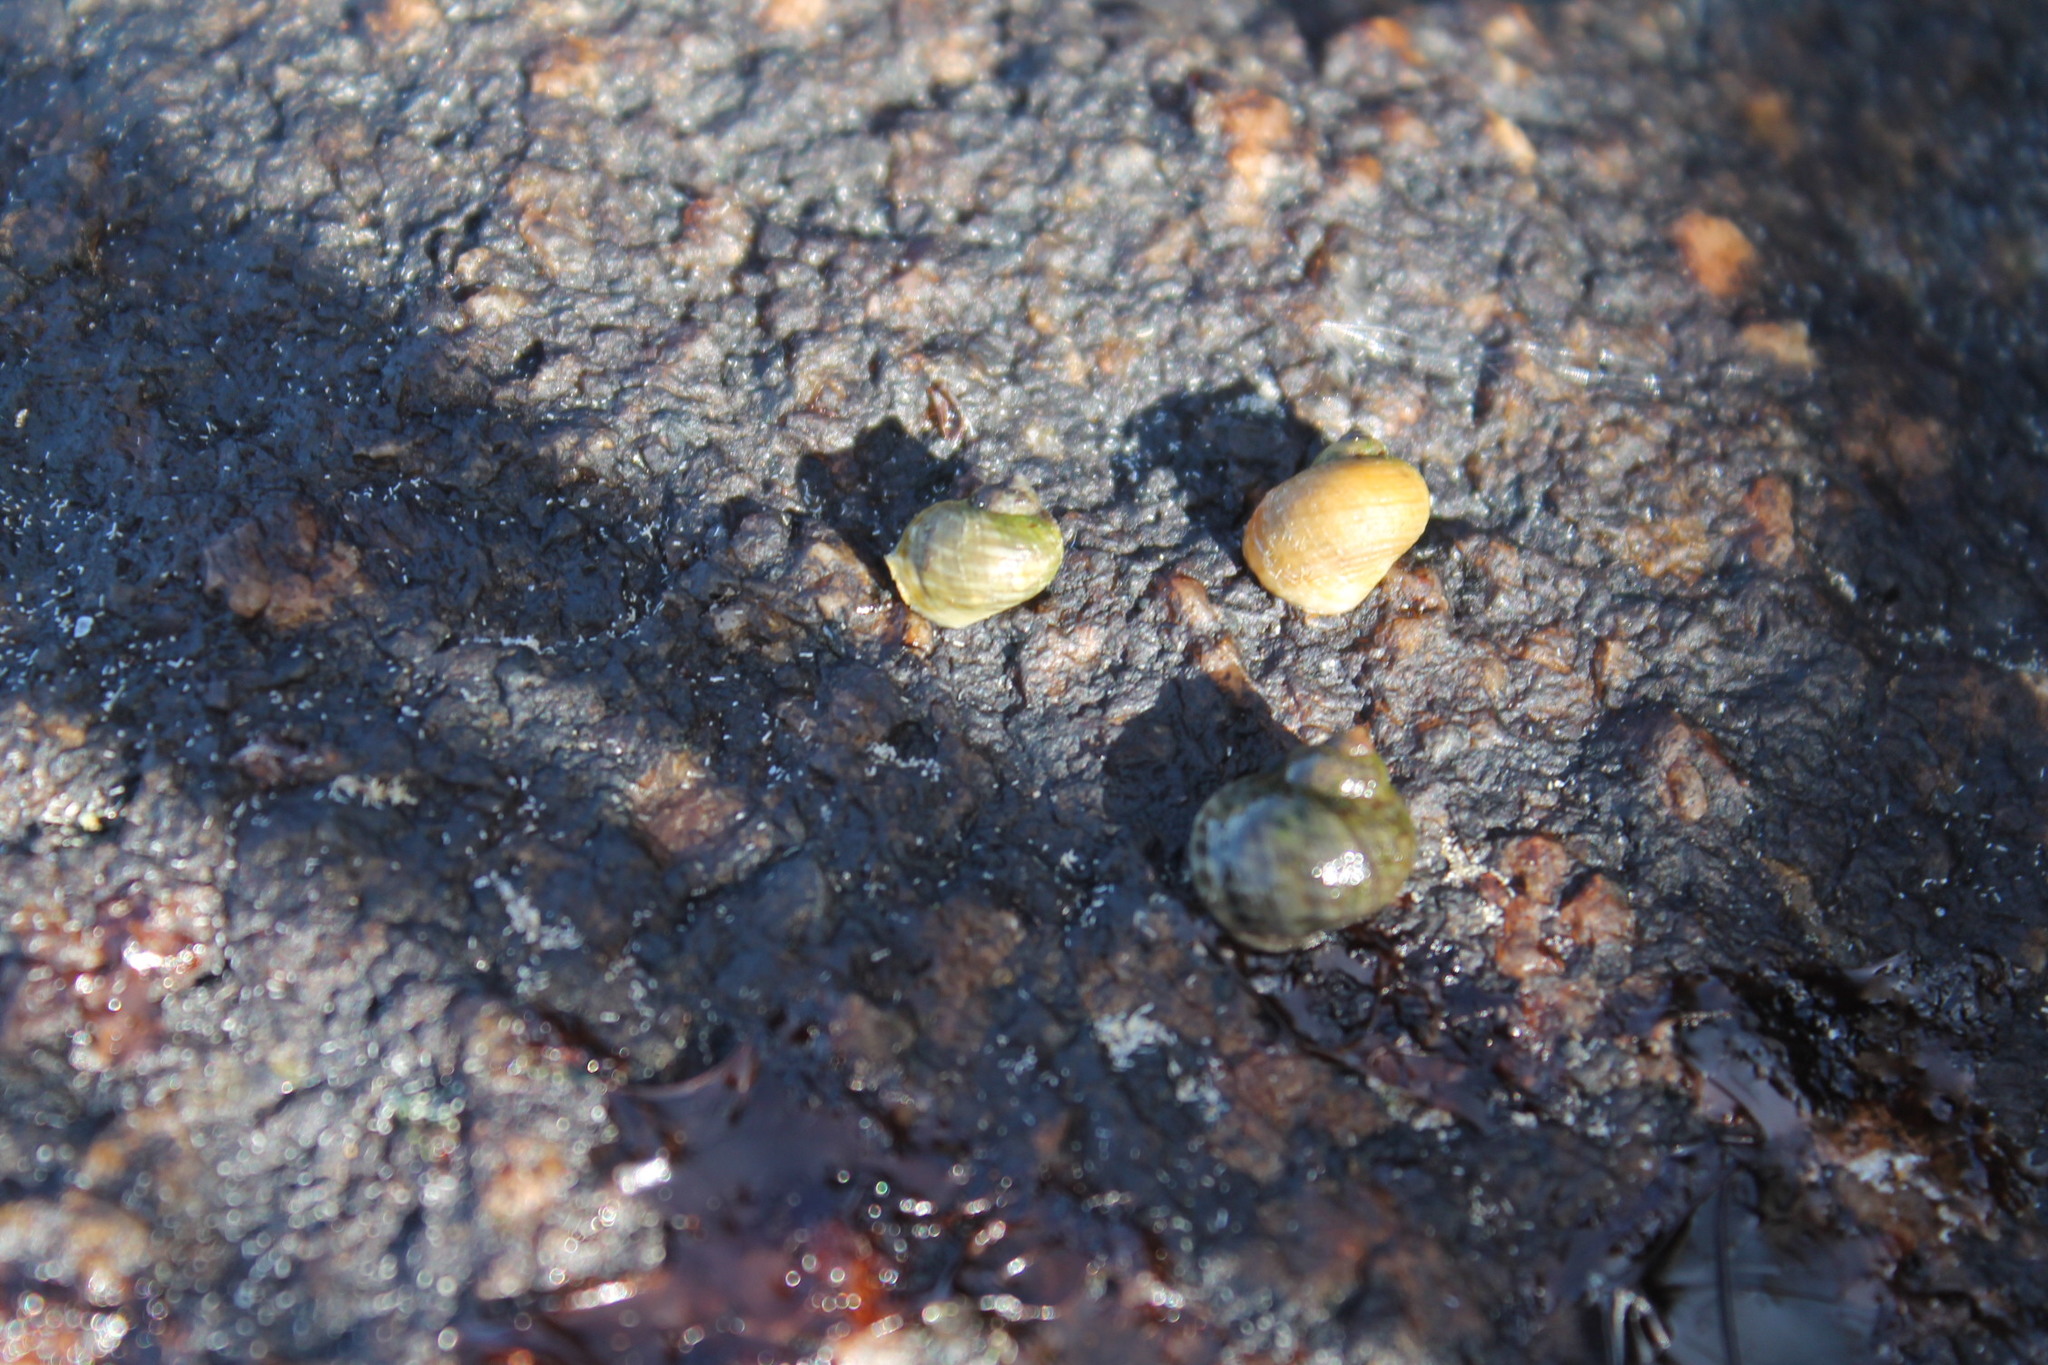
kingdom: Animalia
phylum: Mollusca
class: Gastropoda
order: Littorinimorpha
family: Littorinidae
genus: Littorina
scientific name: Littorina saxatilis
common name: Black-lined periwinkle
